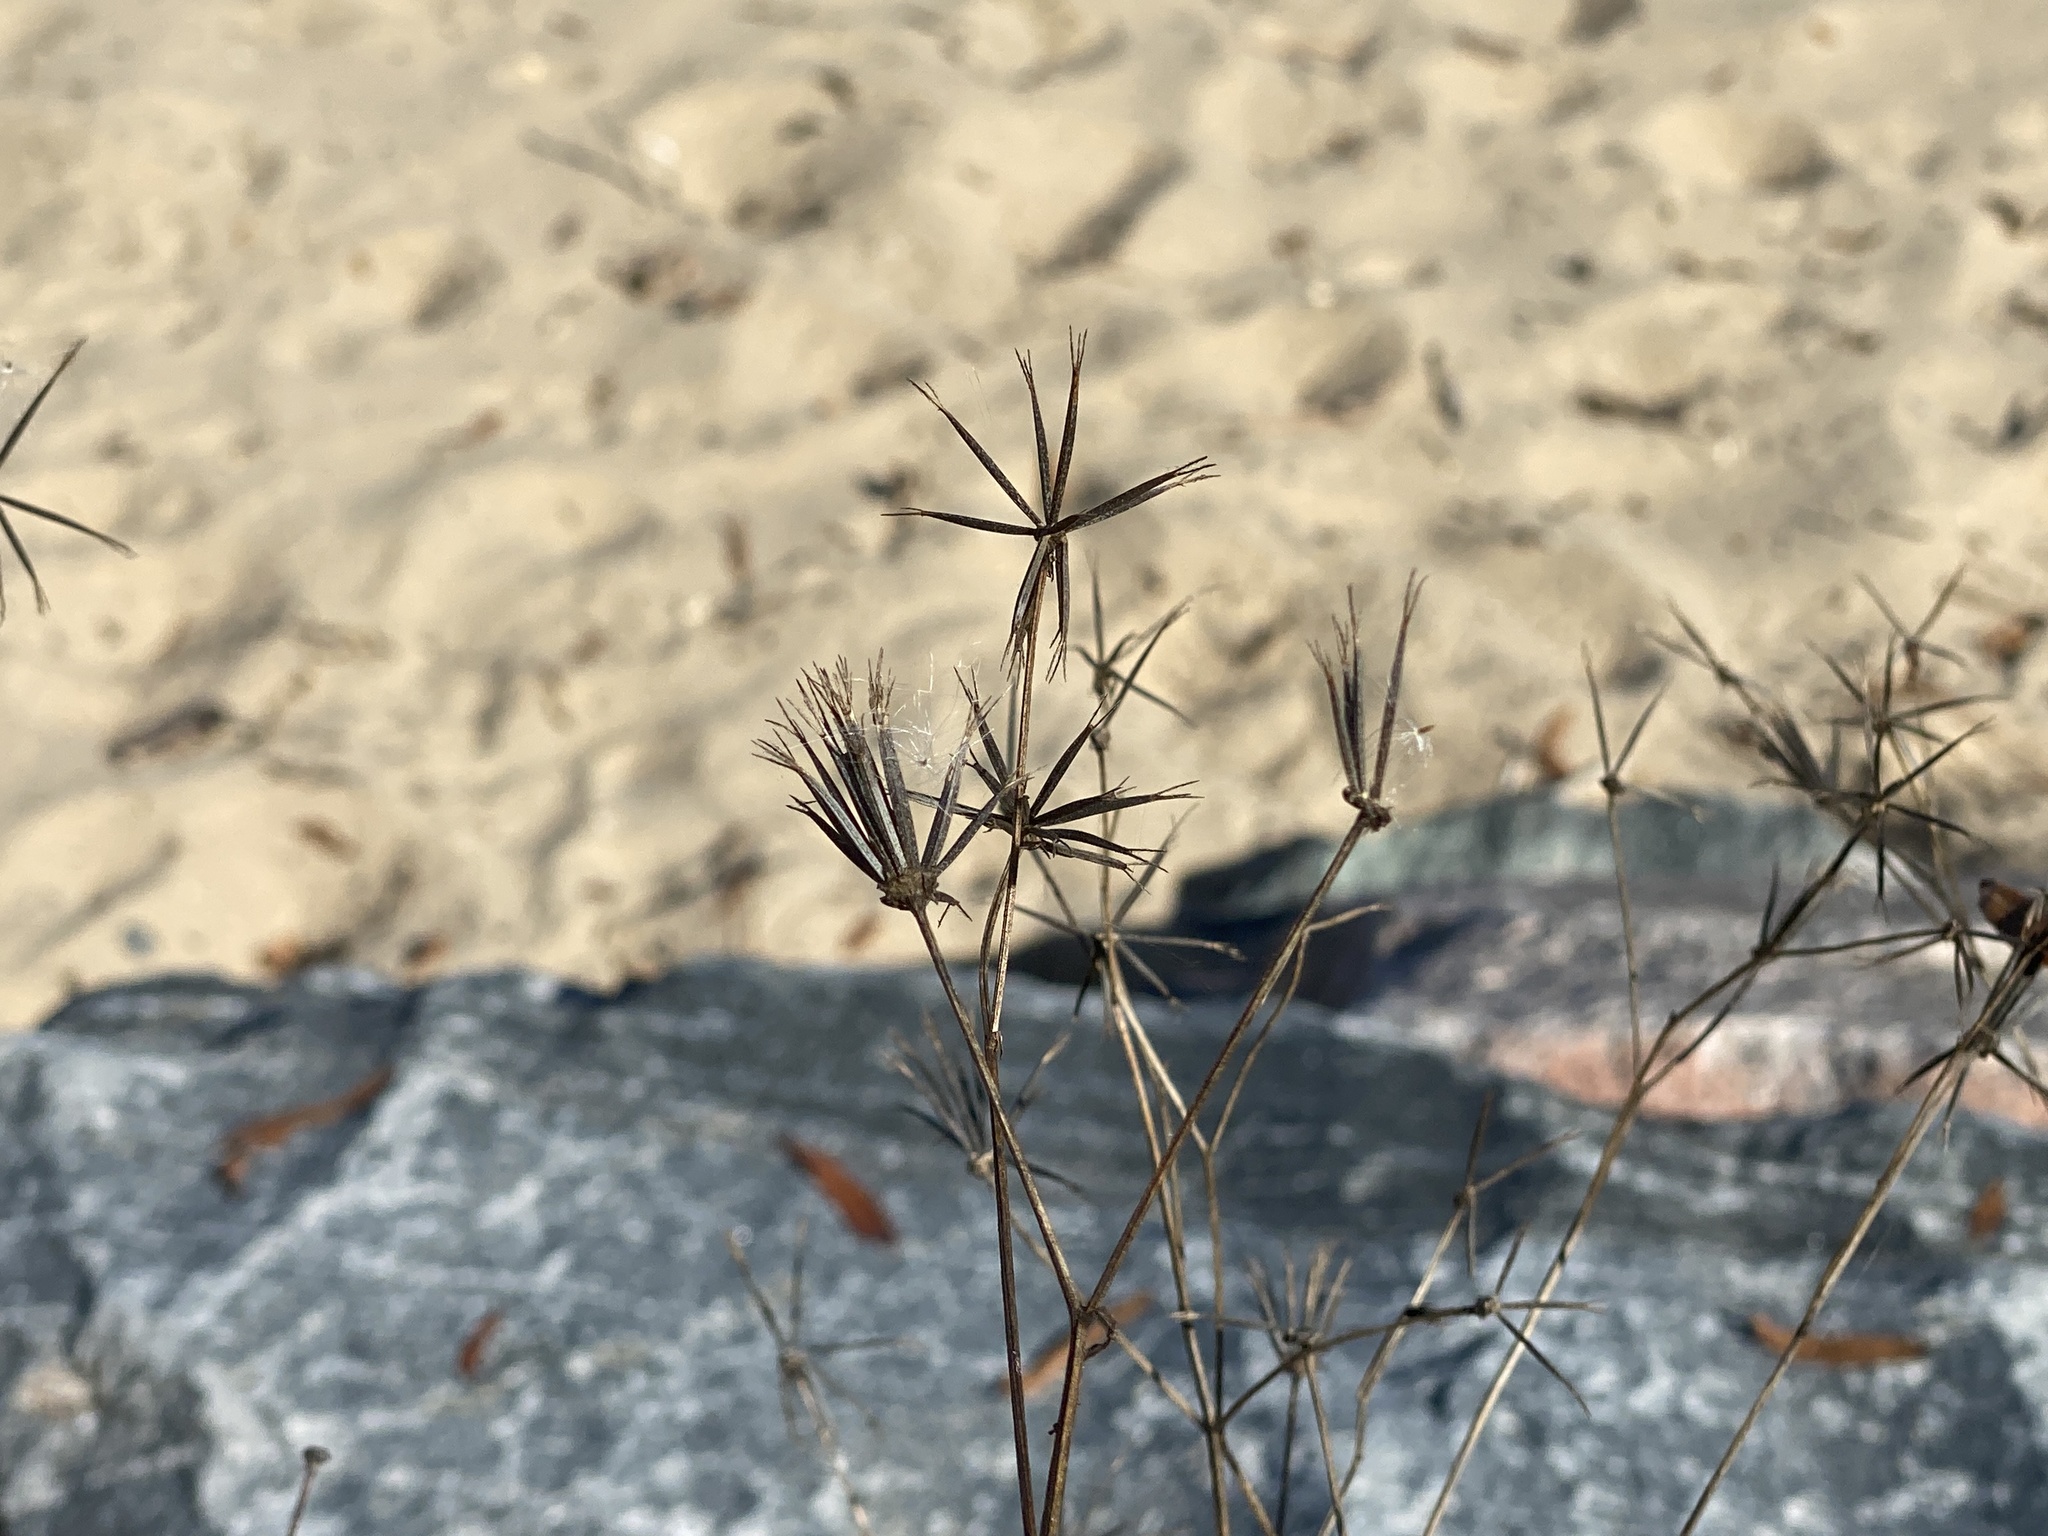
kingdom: Plantae
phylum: Tracheophyta
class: Magnoliopsida
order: Asterales
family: Asteraceae
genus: Bidens
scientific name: Bidens bipinnata
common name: Spanish-needles
